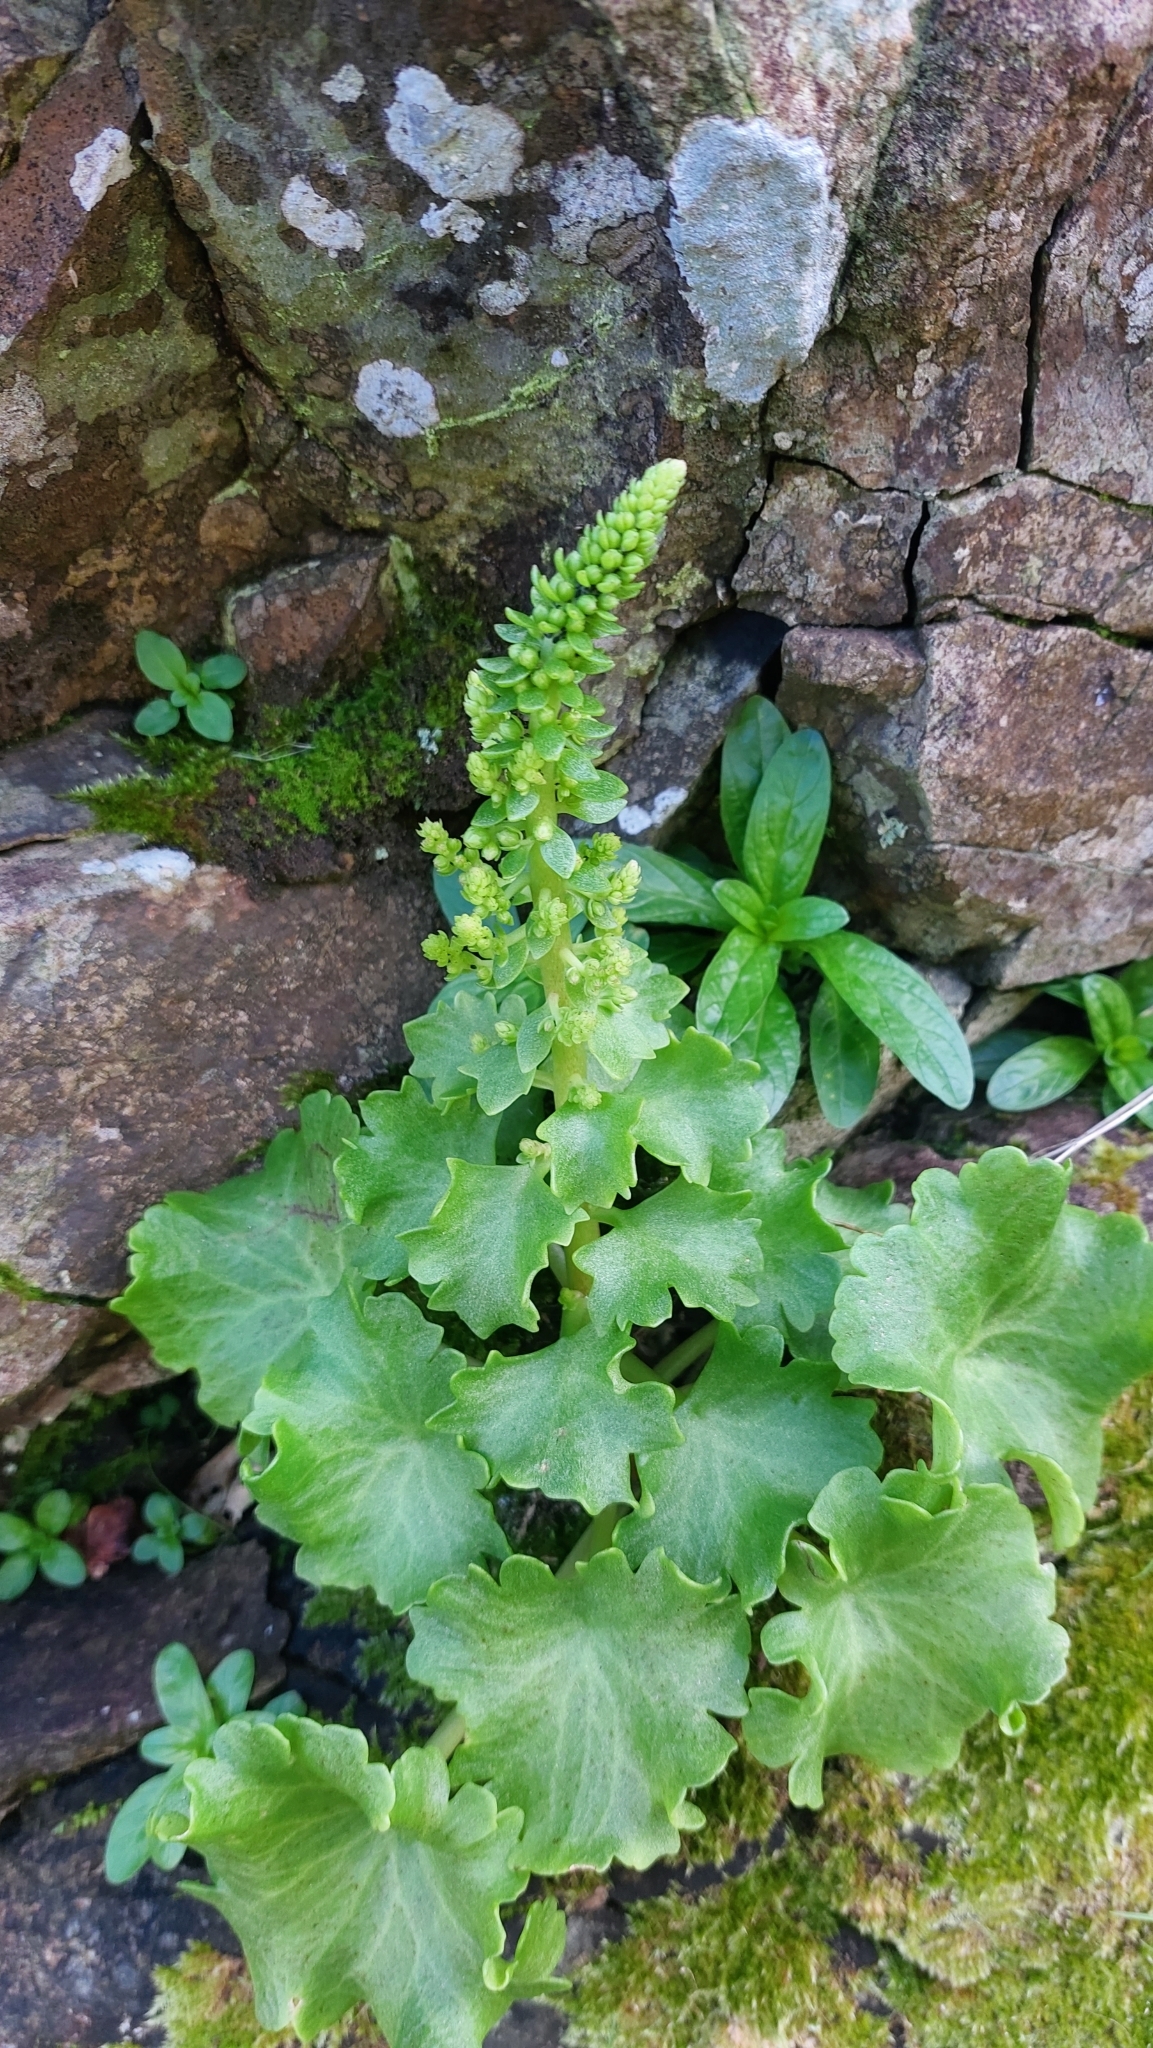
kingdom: Plantae
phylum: Tracheophyta
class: Magnoliopsida
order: Saxifragales
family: Crassulaceae
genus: Umbilicus
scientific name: Umbilicus rupestris
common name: Navelwort
